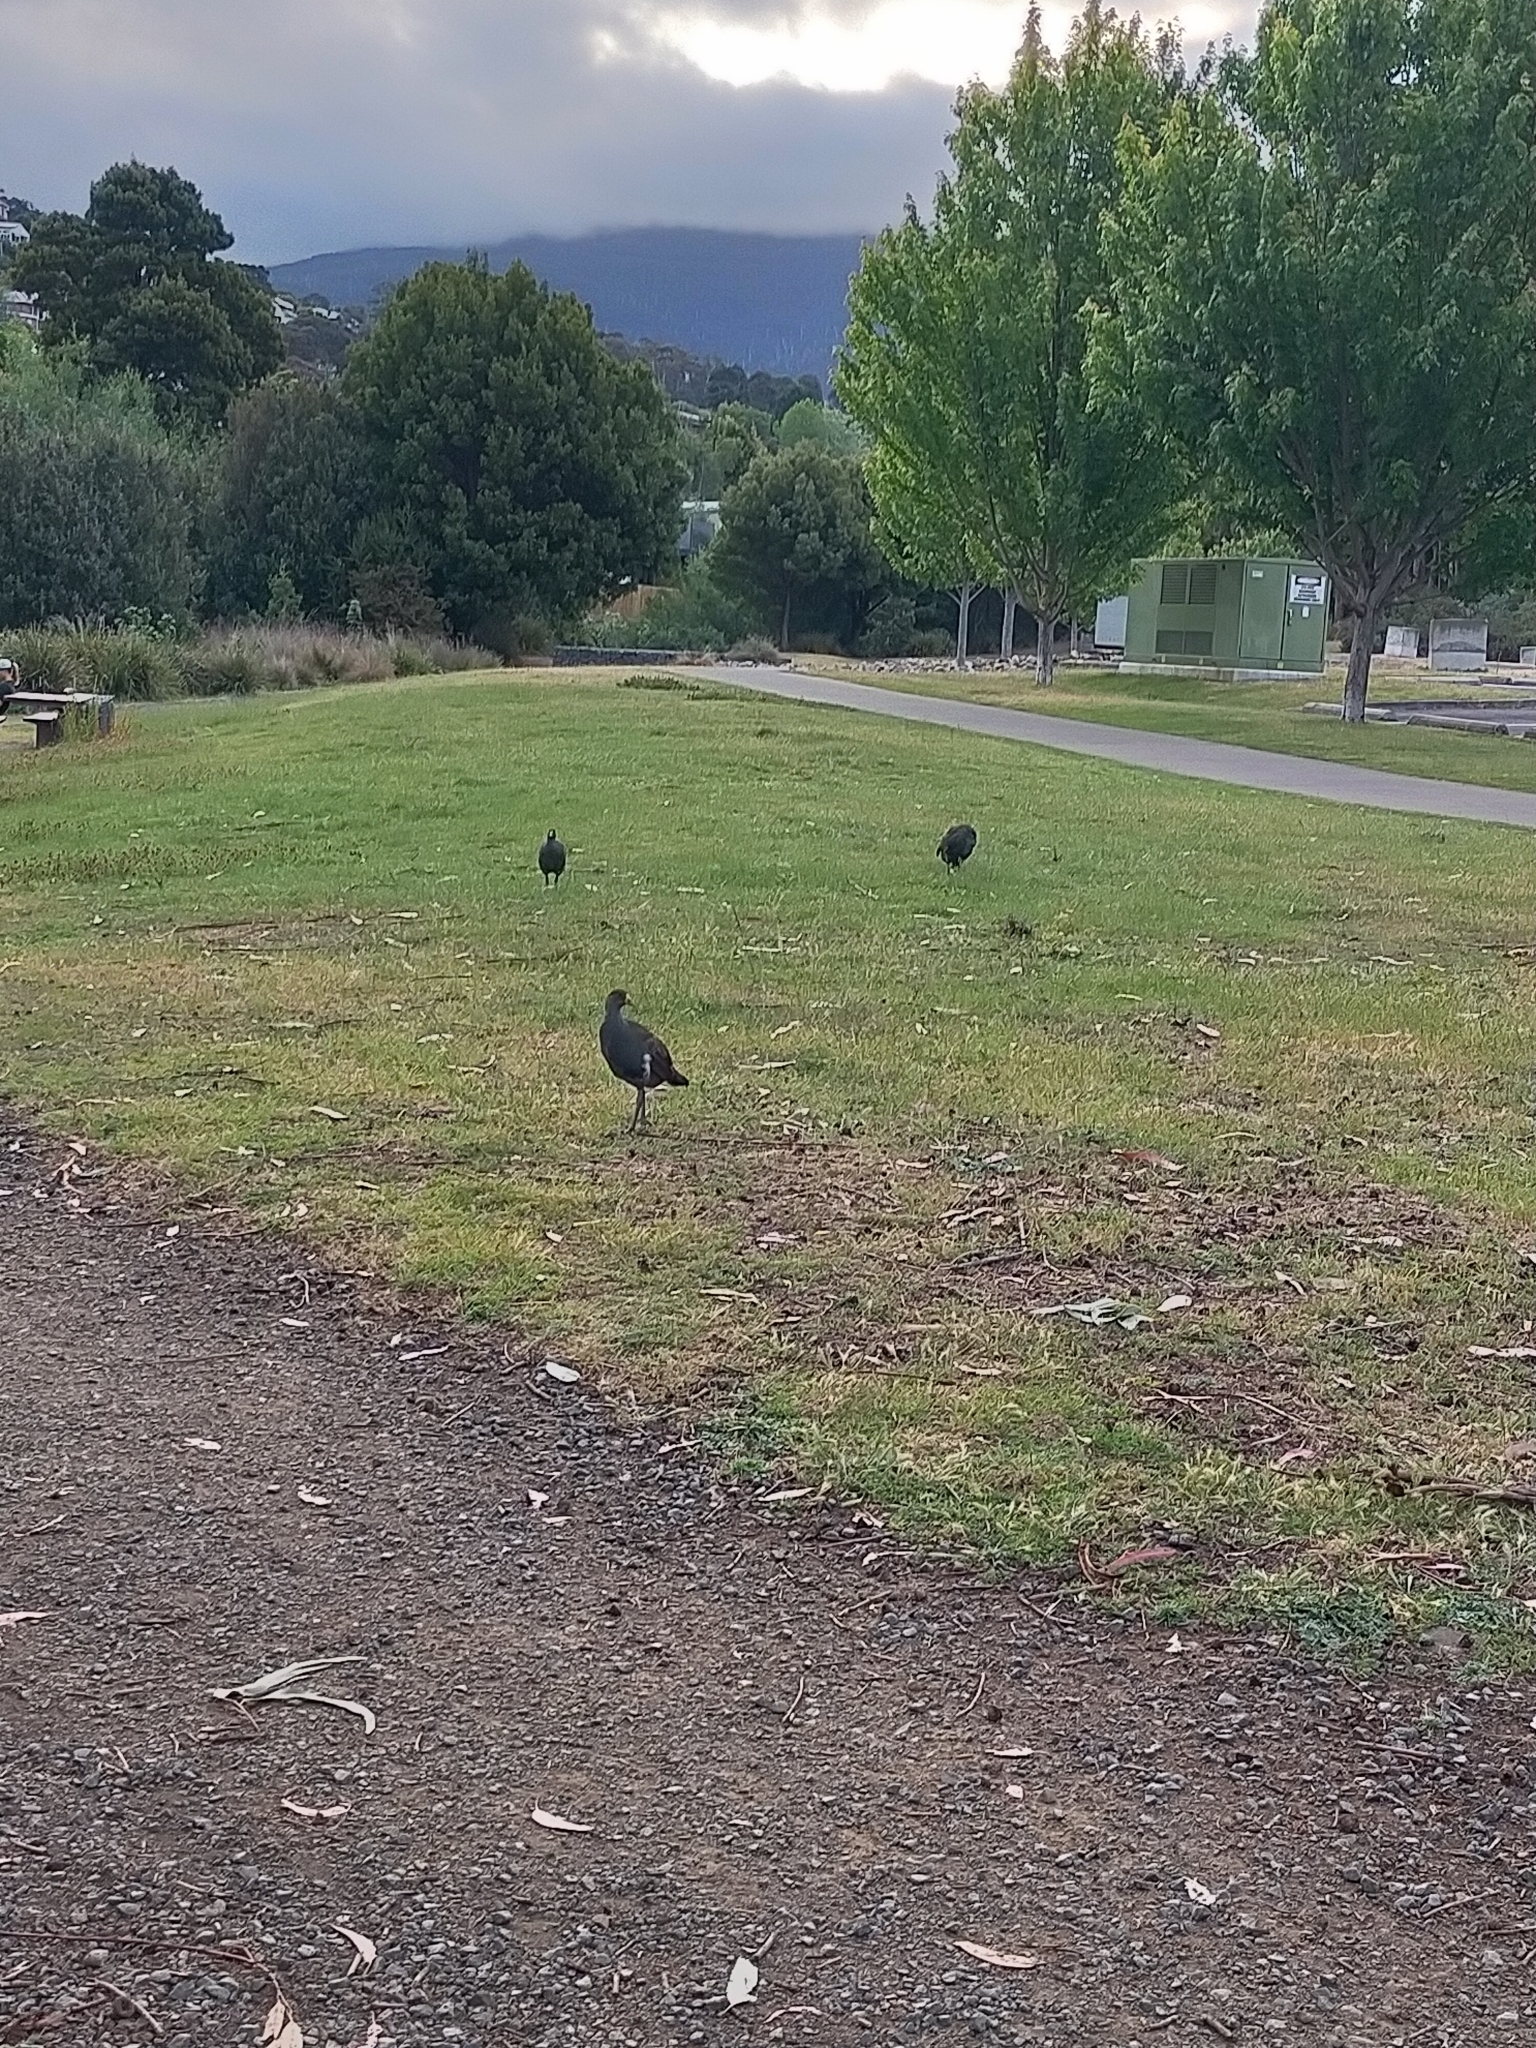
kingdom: Animalia
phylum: Chordata
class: Aves
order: Gruiformes
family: Rallidae
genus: Gallinula
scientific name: Gallinula mortierii
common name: Tasmanian nativehen
